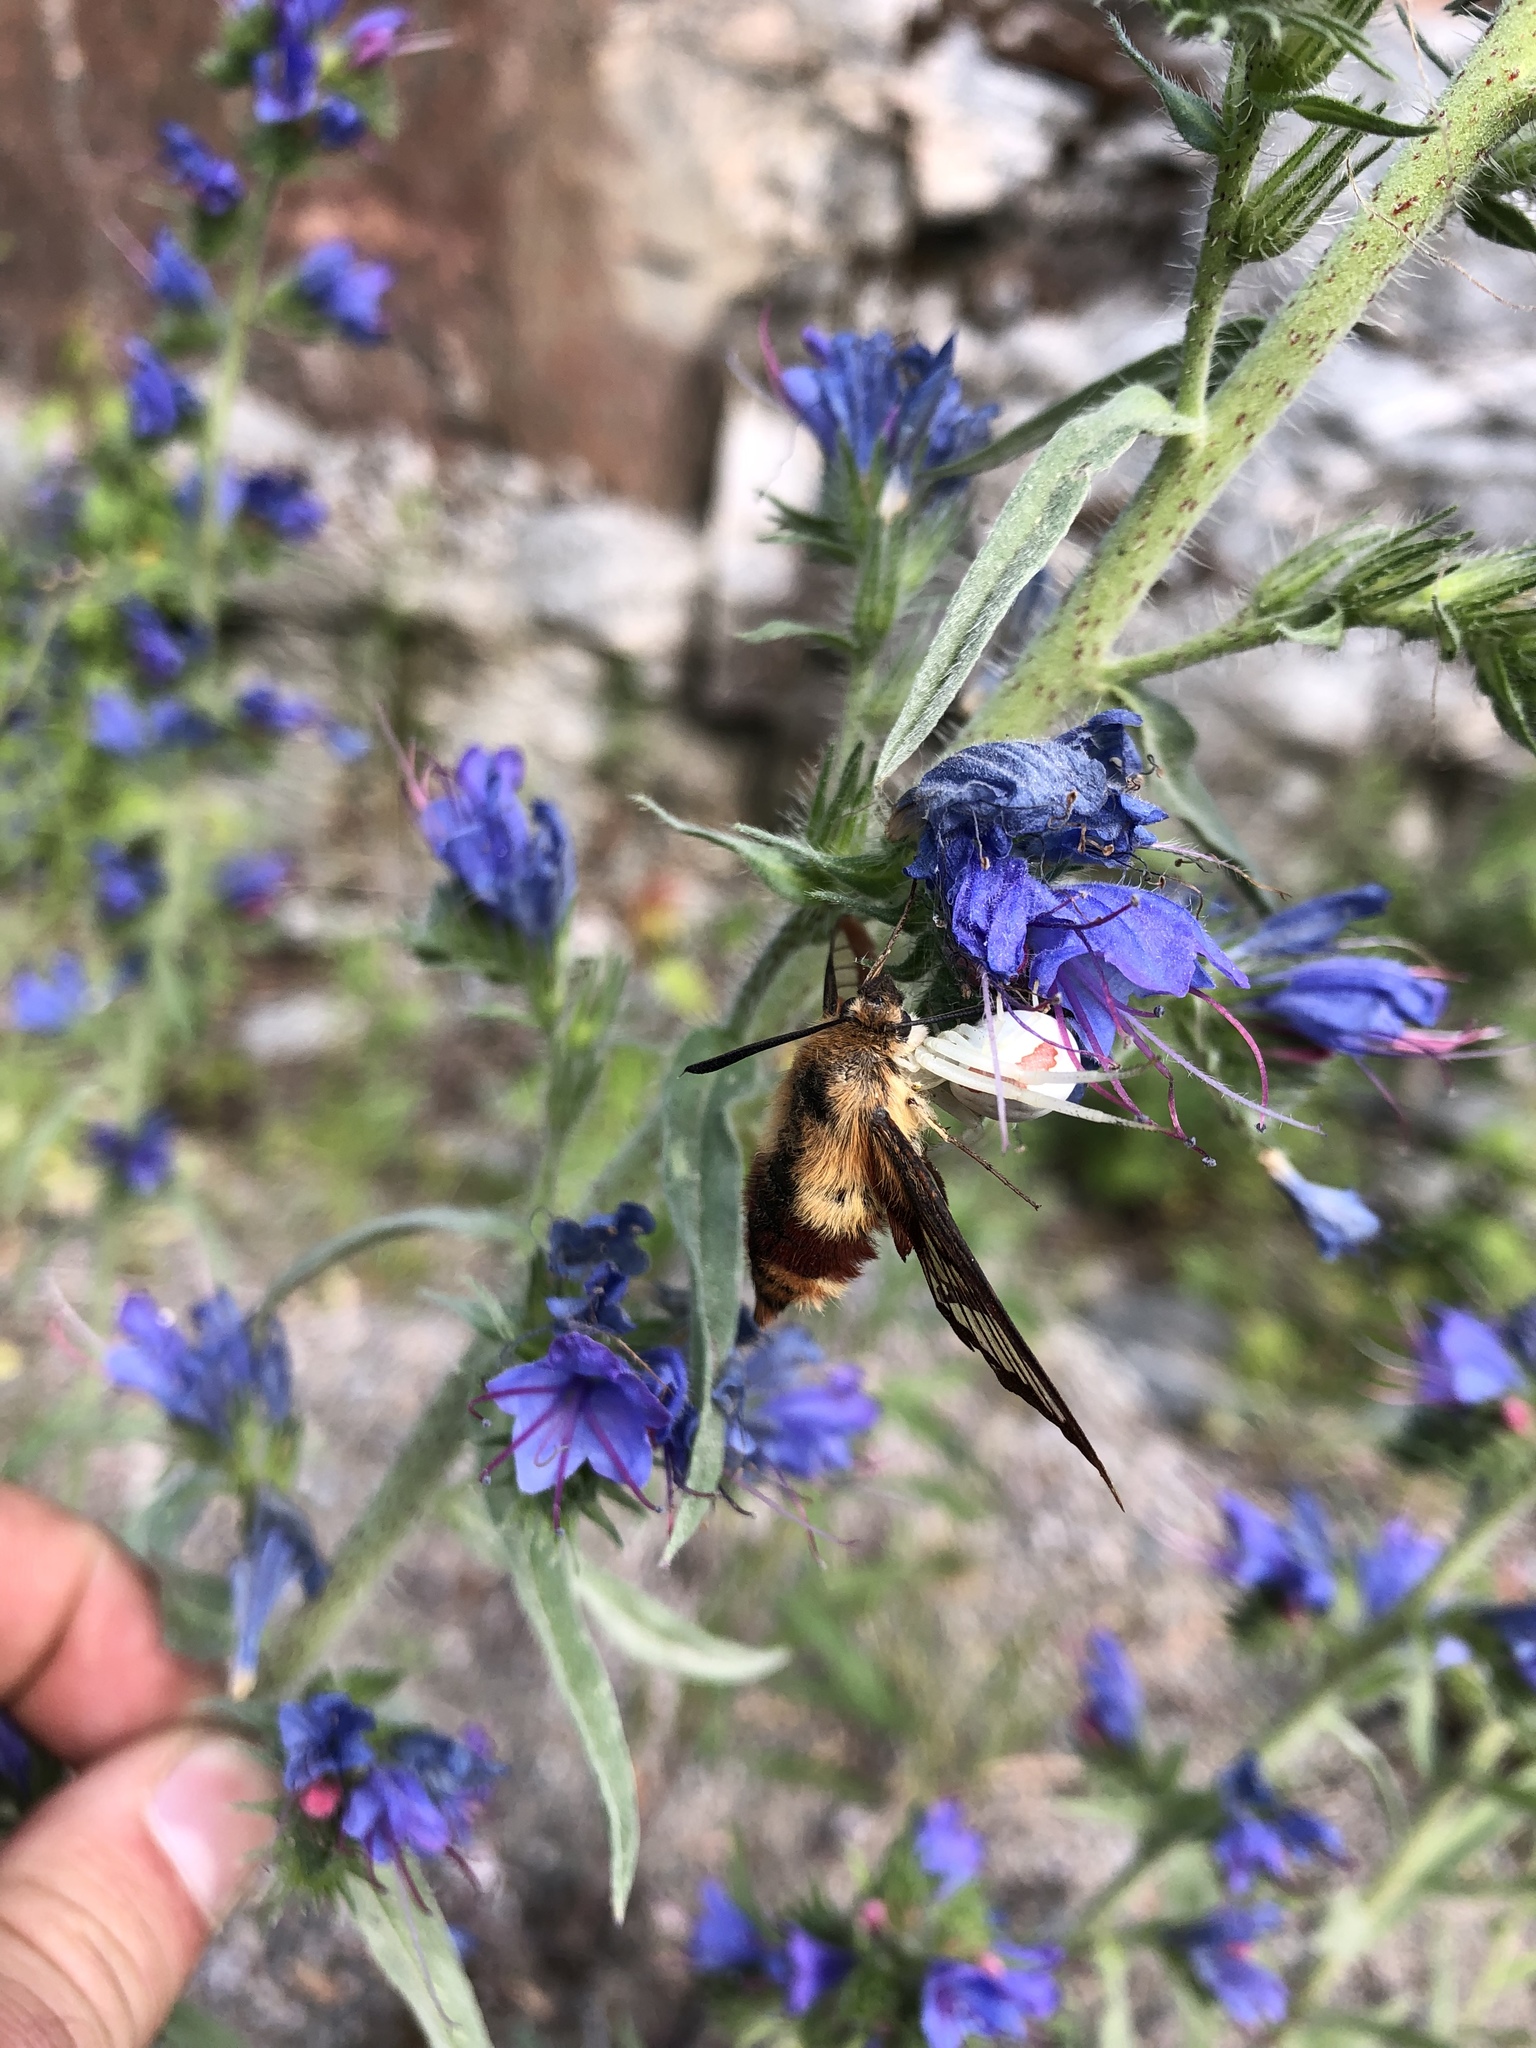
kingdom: Animalia
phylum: Arthropoda
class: Insecta
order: Lepidoptera
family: Sphingidae
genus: Hemaris
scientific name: Hemaris thysbe
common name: Common clear-wing
